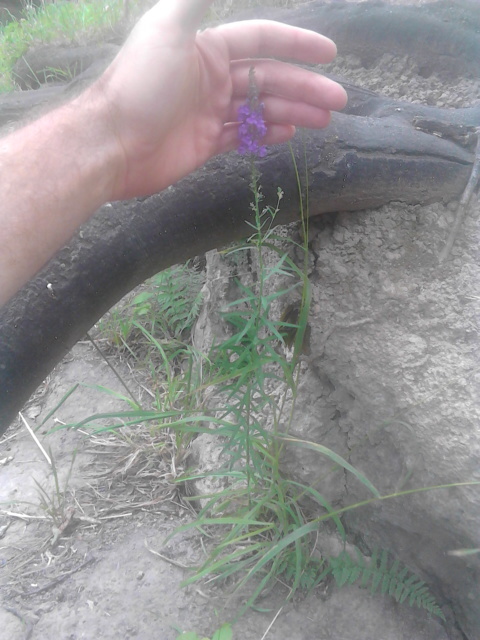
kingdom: Plantae
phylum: Tracheophyta
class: Magnoliopsida
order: Lamiales
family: Plantaginaceae
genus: Linaria
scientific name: Linaria purpurea
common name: Purple toadflax
